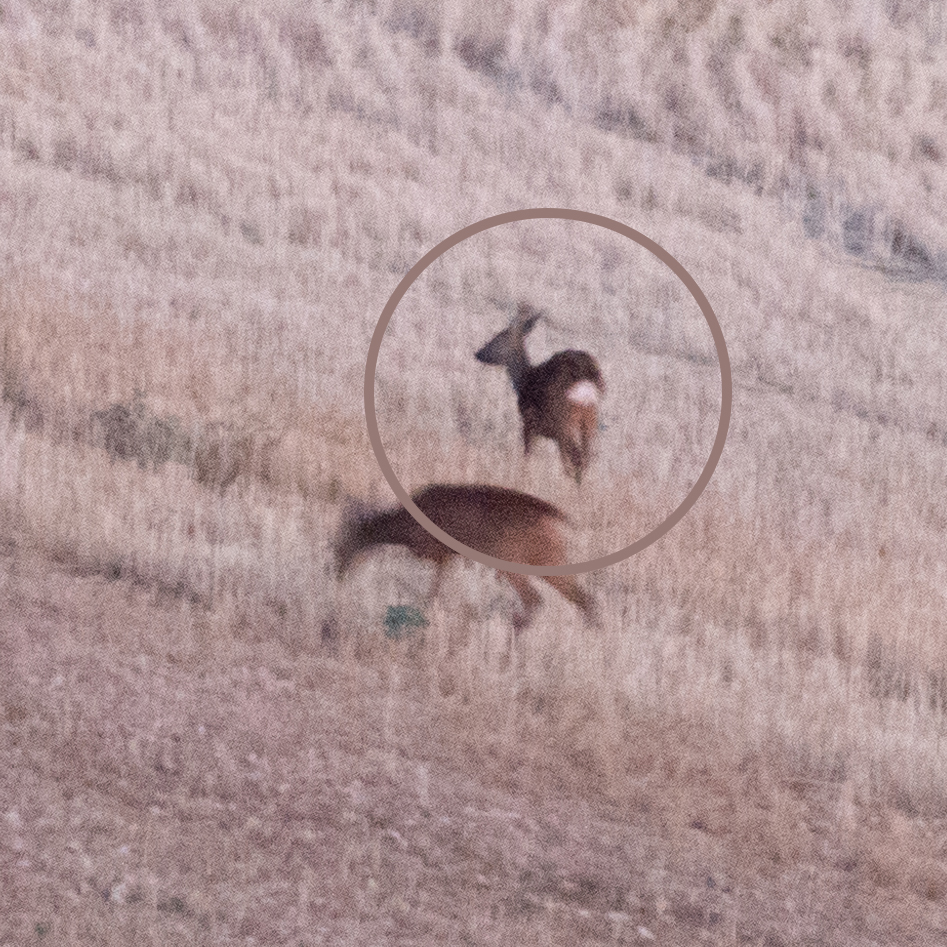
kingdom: Animalia
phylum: Chordata
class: Mammalia
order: Artiodactyla
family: Cervidae
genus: Capreolus
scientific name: Capreolus capreolus
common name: Western roe deer
